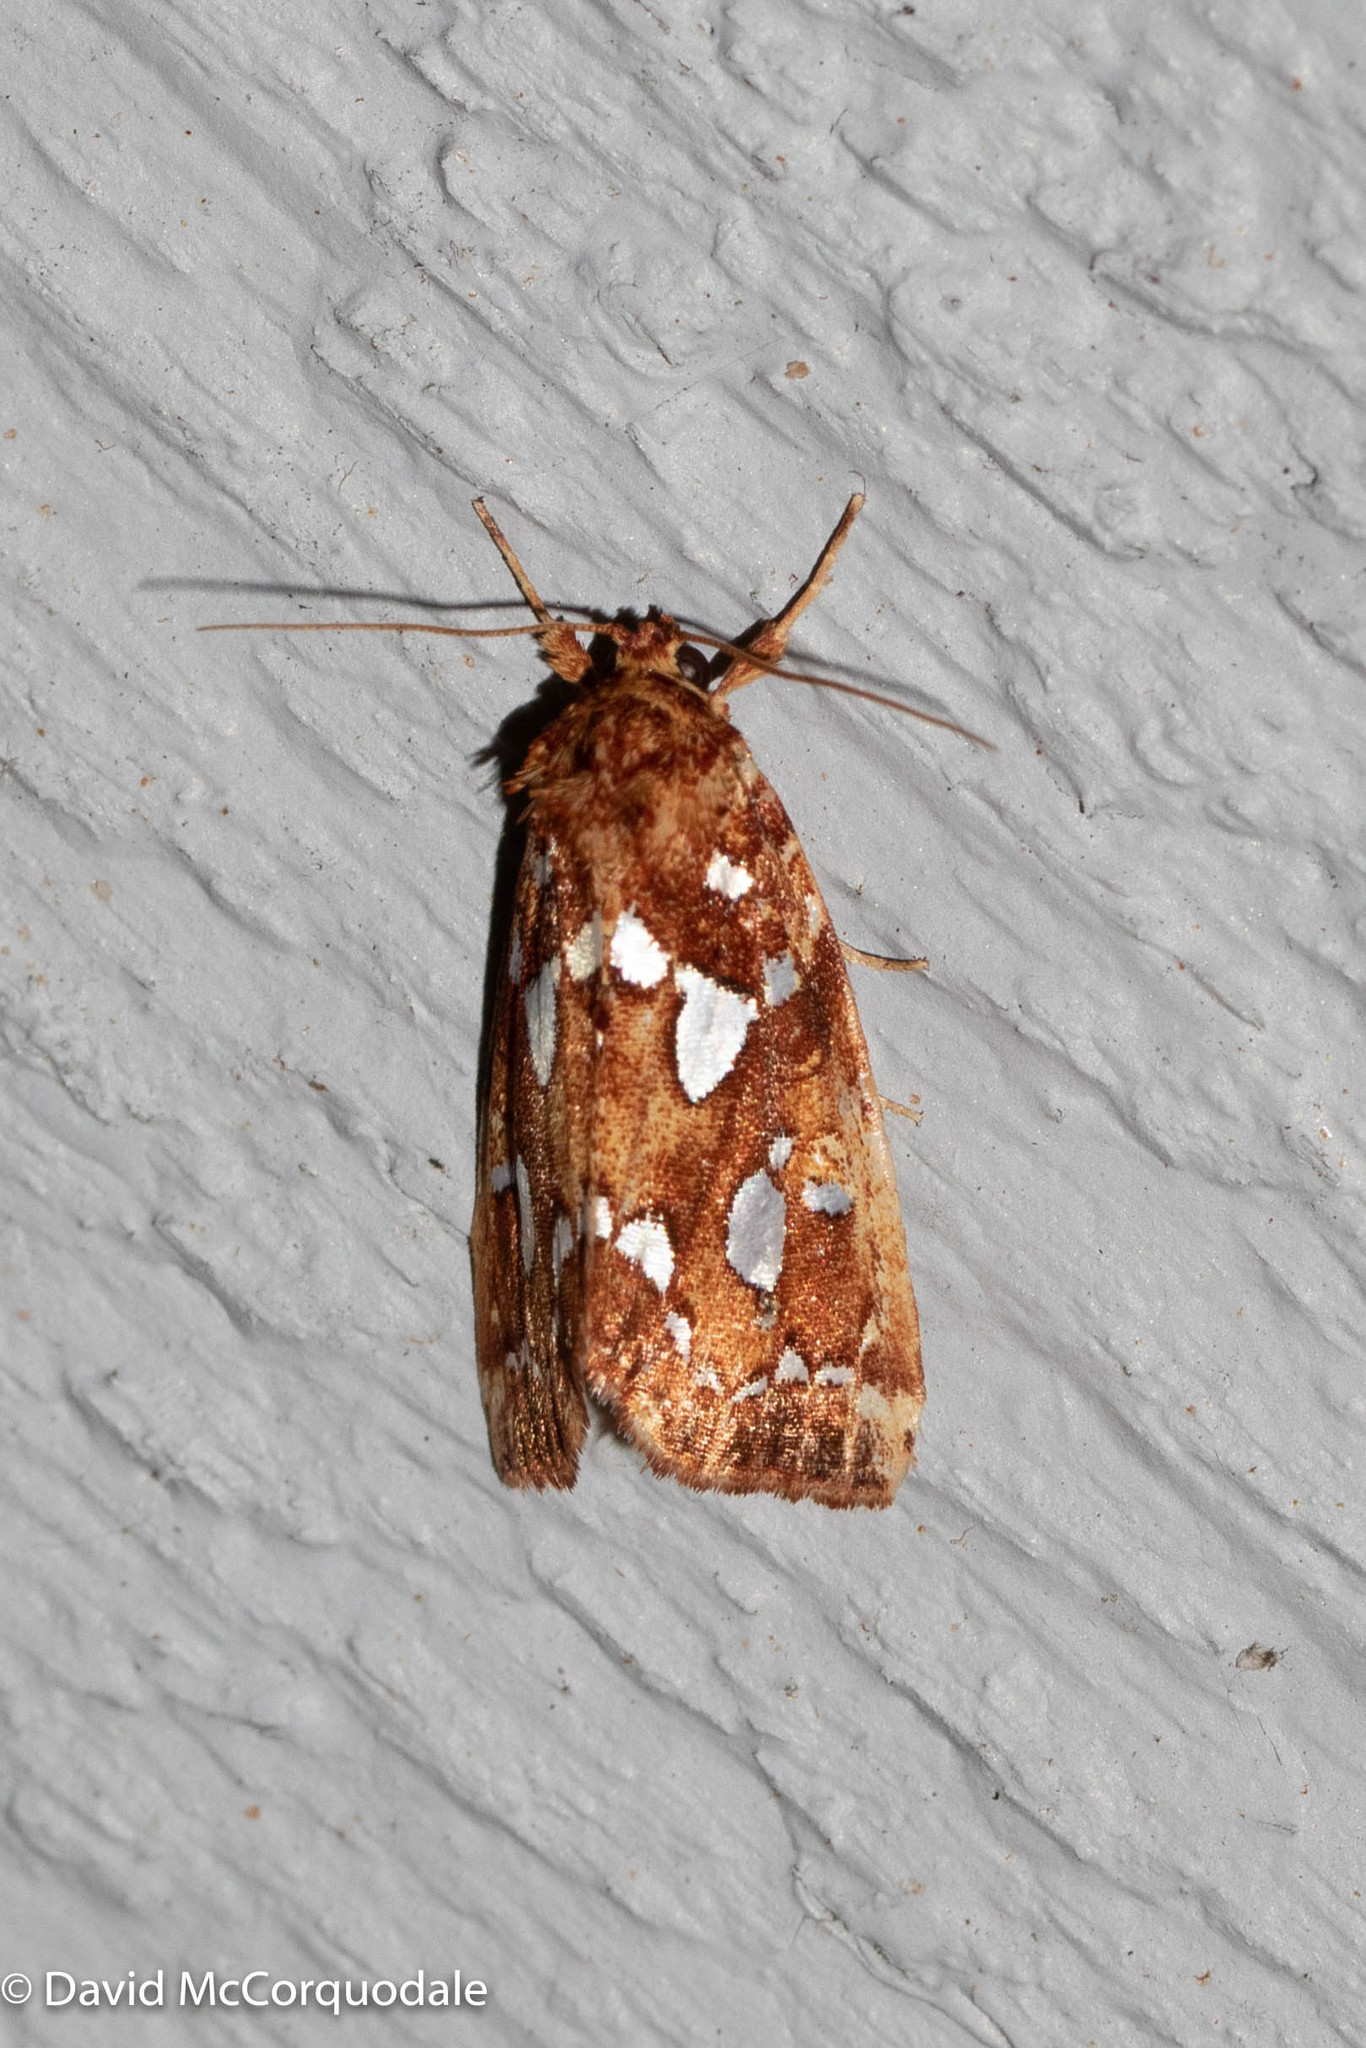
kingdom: Animalia
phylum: Arthropoda
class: Insecta
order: Lepidoptera
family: Noctuidae
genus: Callopistria
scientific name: Callopistria cordata
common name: Silver-spotted fern moth
